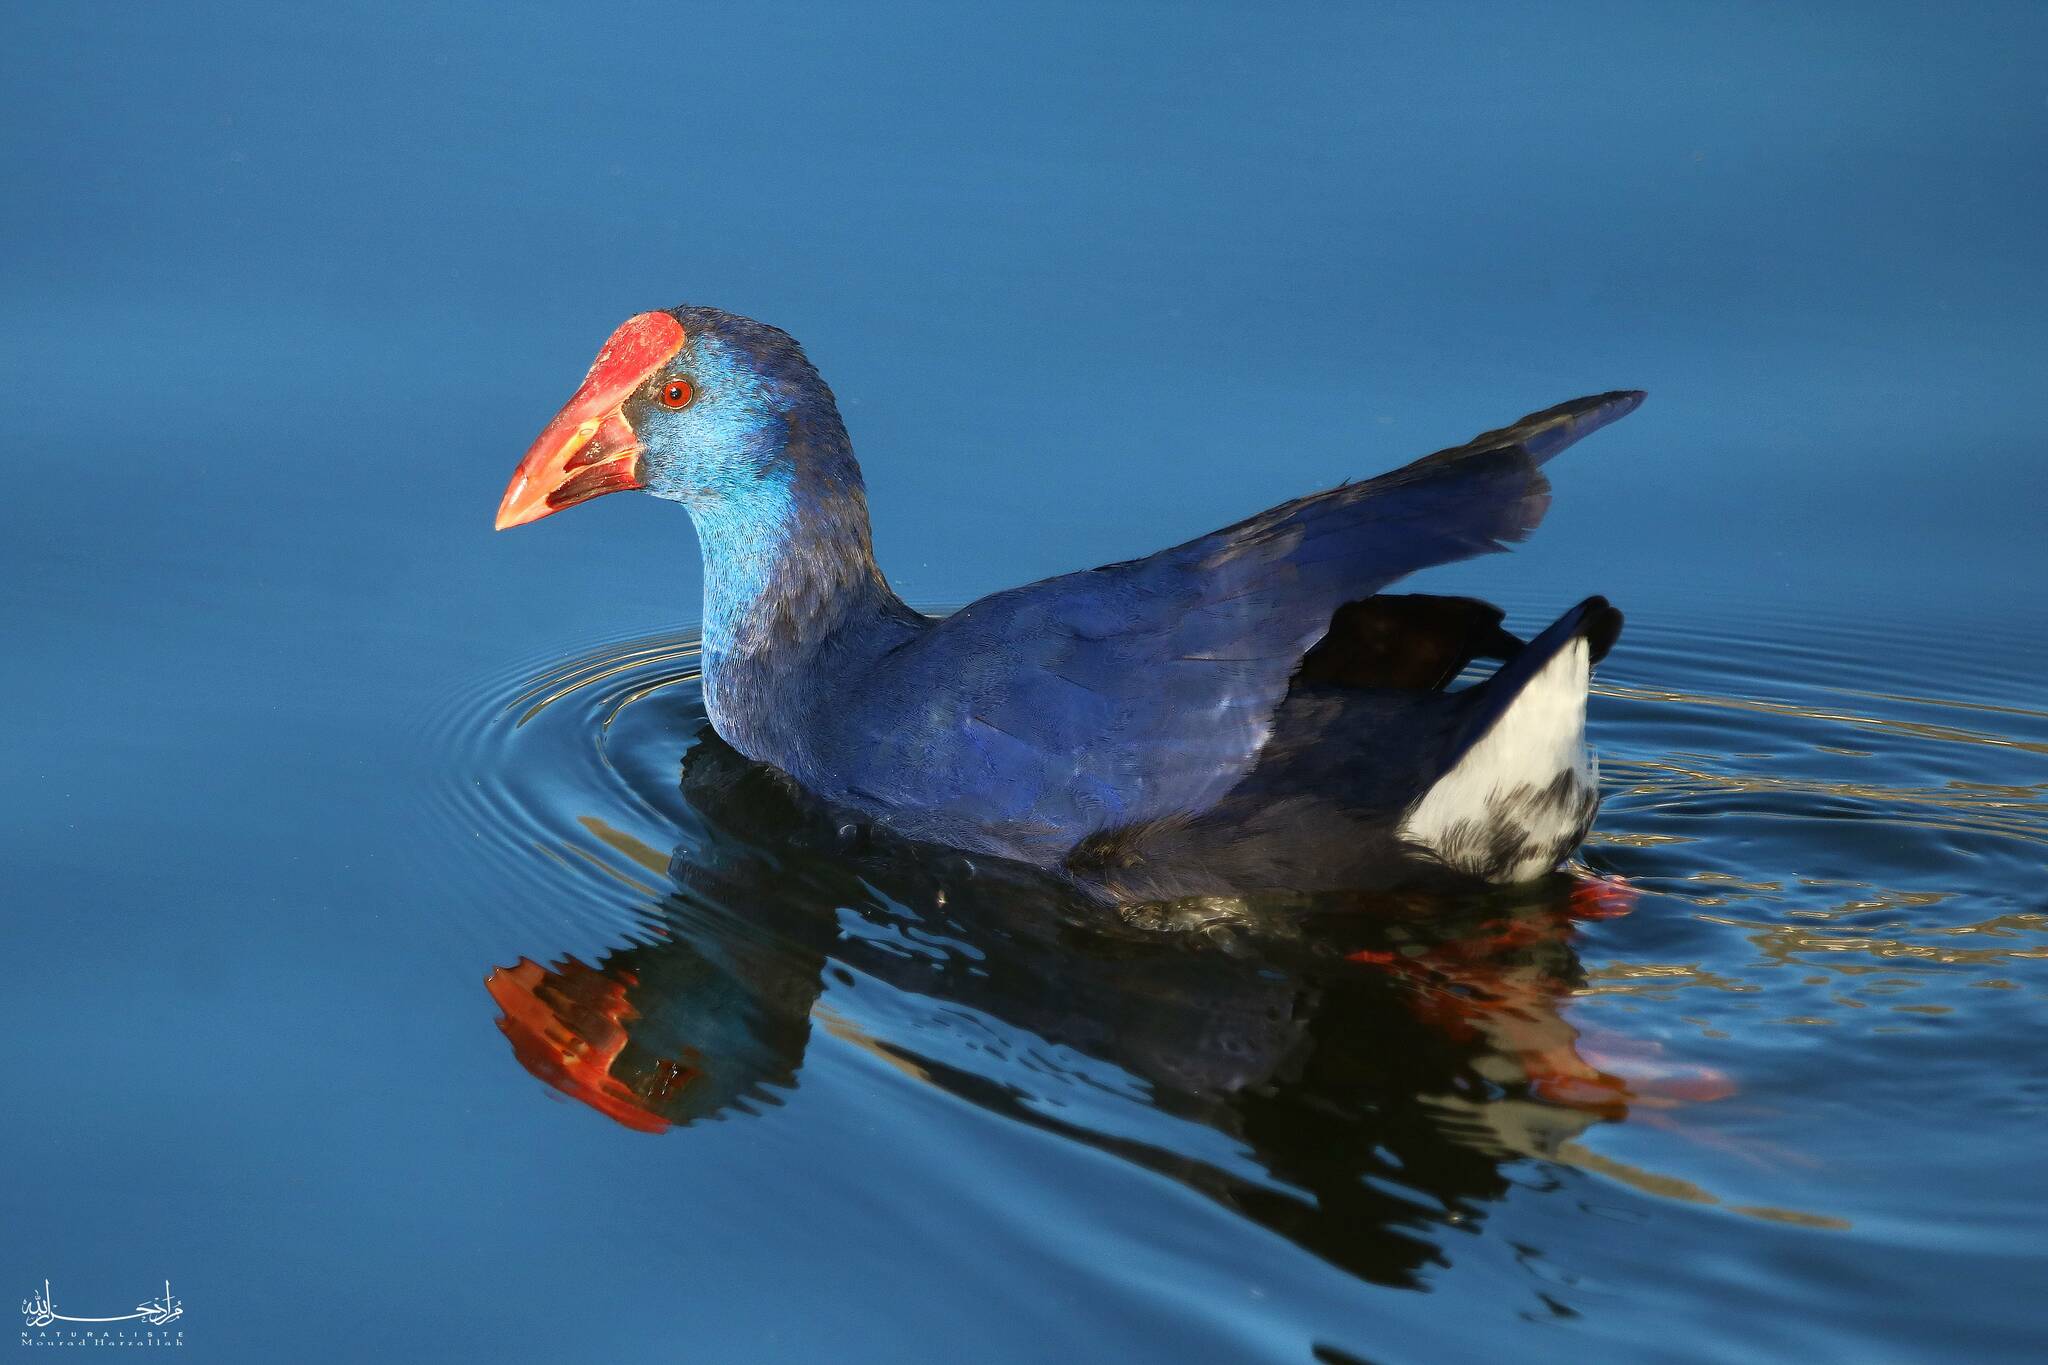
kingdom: Animalia
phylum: Chordata
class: Aves
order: Gruiformes
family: Rallidae
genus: Porphyrio
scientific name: Porphyrio porphyrio
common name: Purple swamphen
